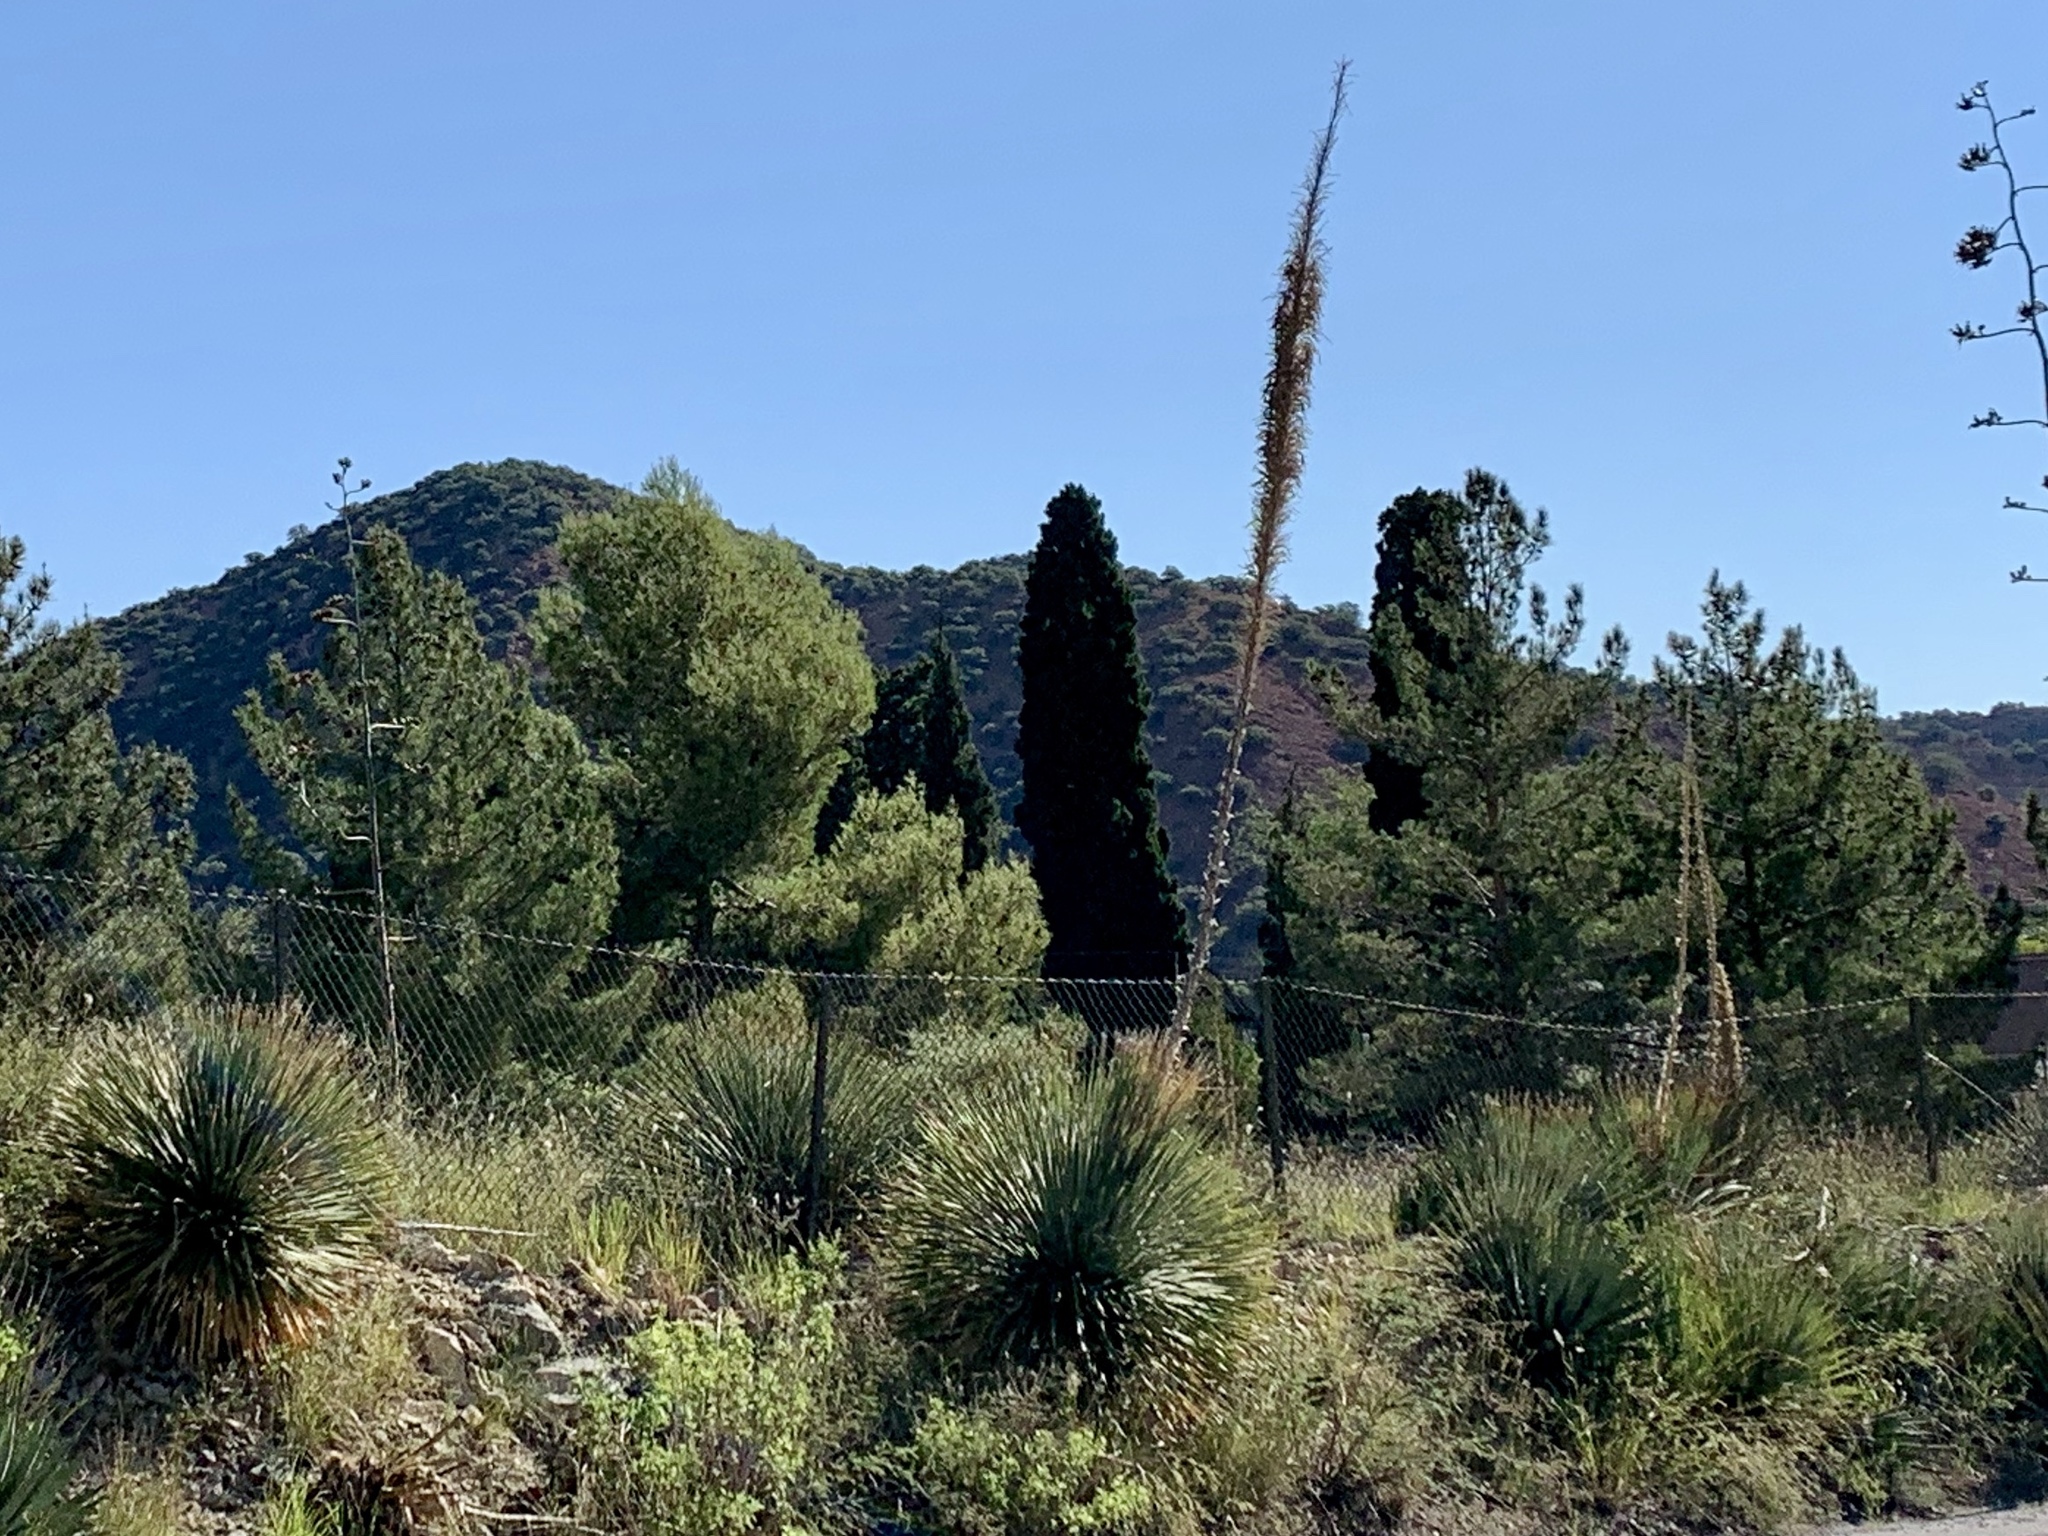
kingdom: Plantae
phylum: Tracheophyta
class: Liliopsida
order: Asparagales
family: Asparagaceae
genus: Dasylirion
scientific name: Dasylirion wheeleri
